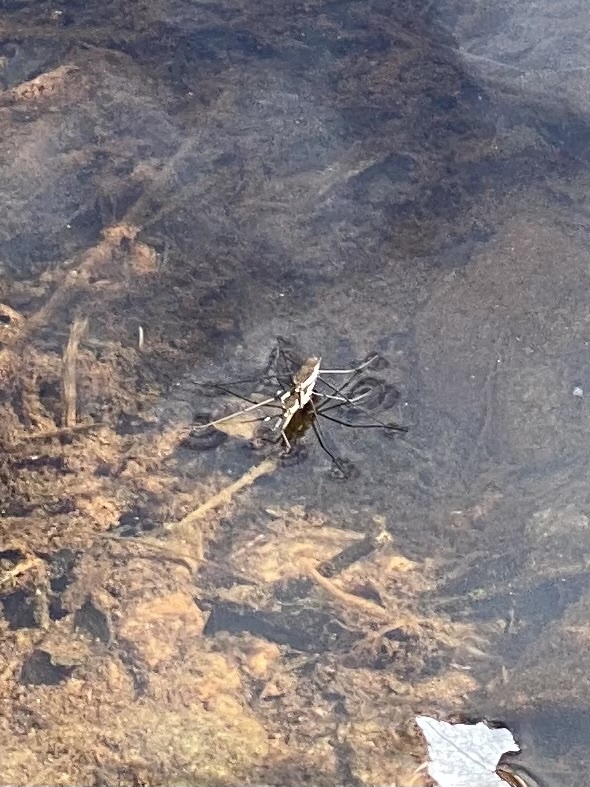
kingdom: Animalia
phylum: Arthropoda
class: Insecta
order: Hemiptera
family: Gerridae
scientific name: Gerridae
